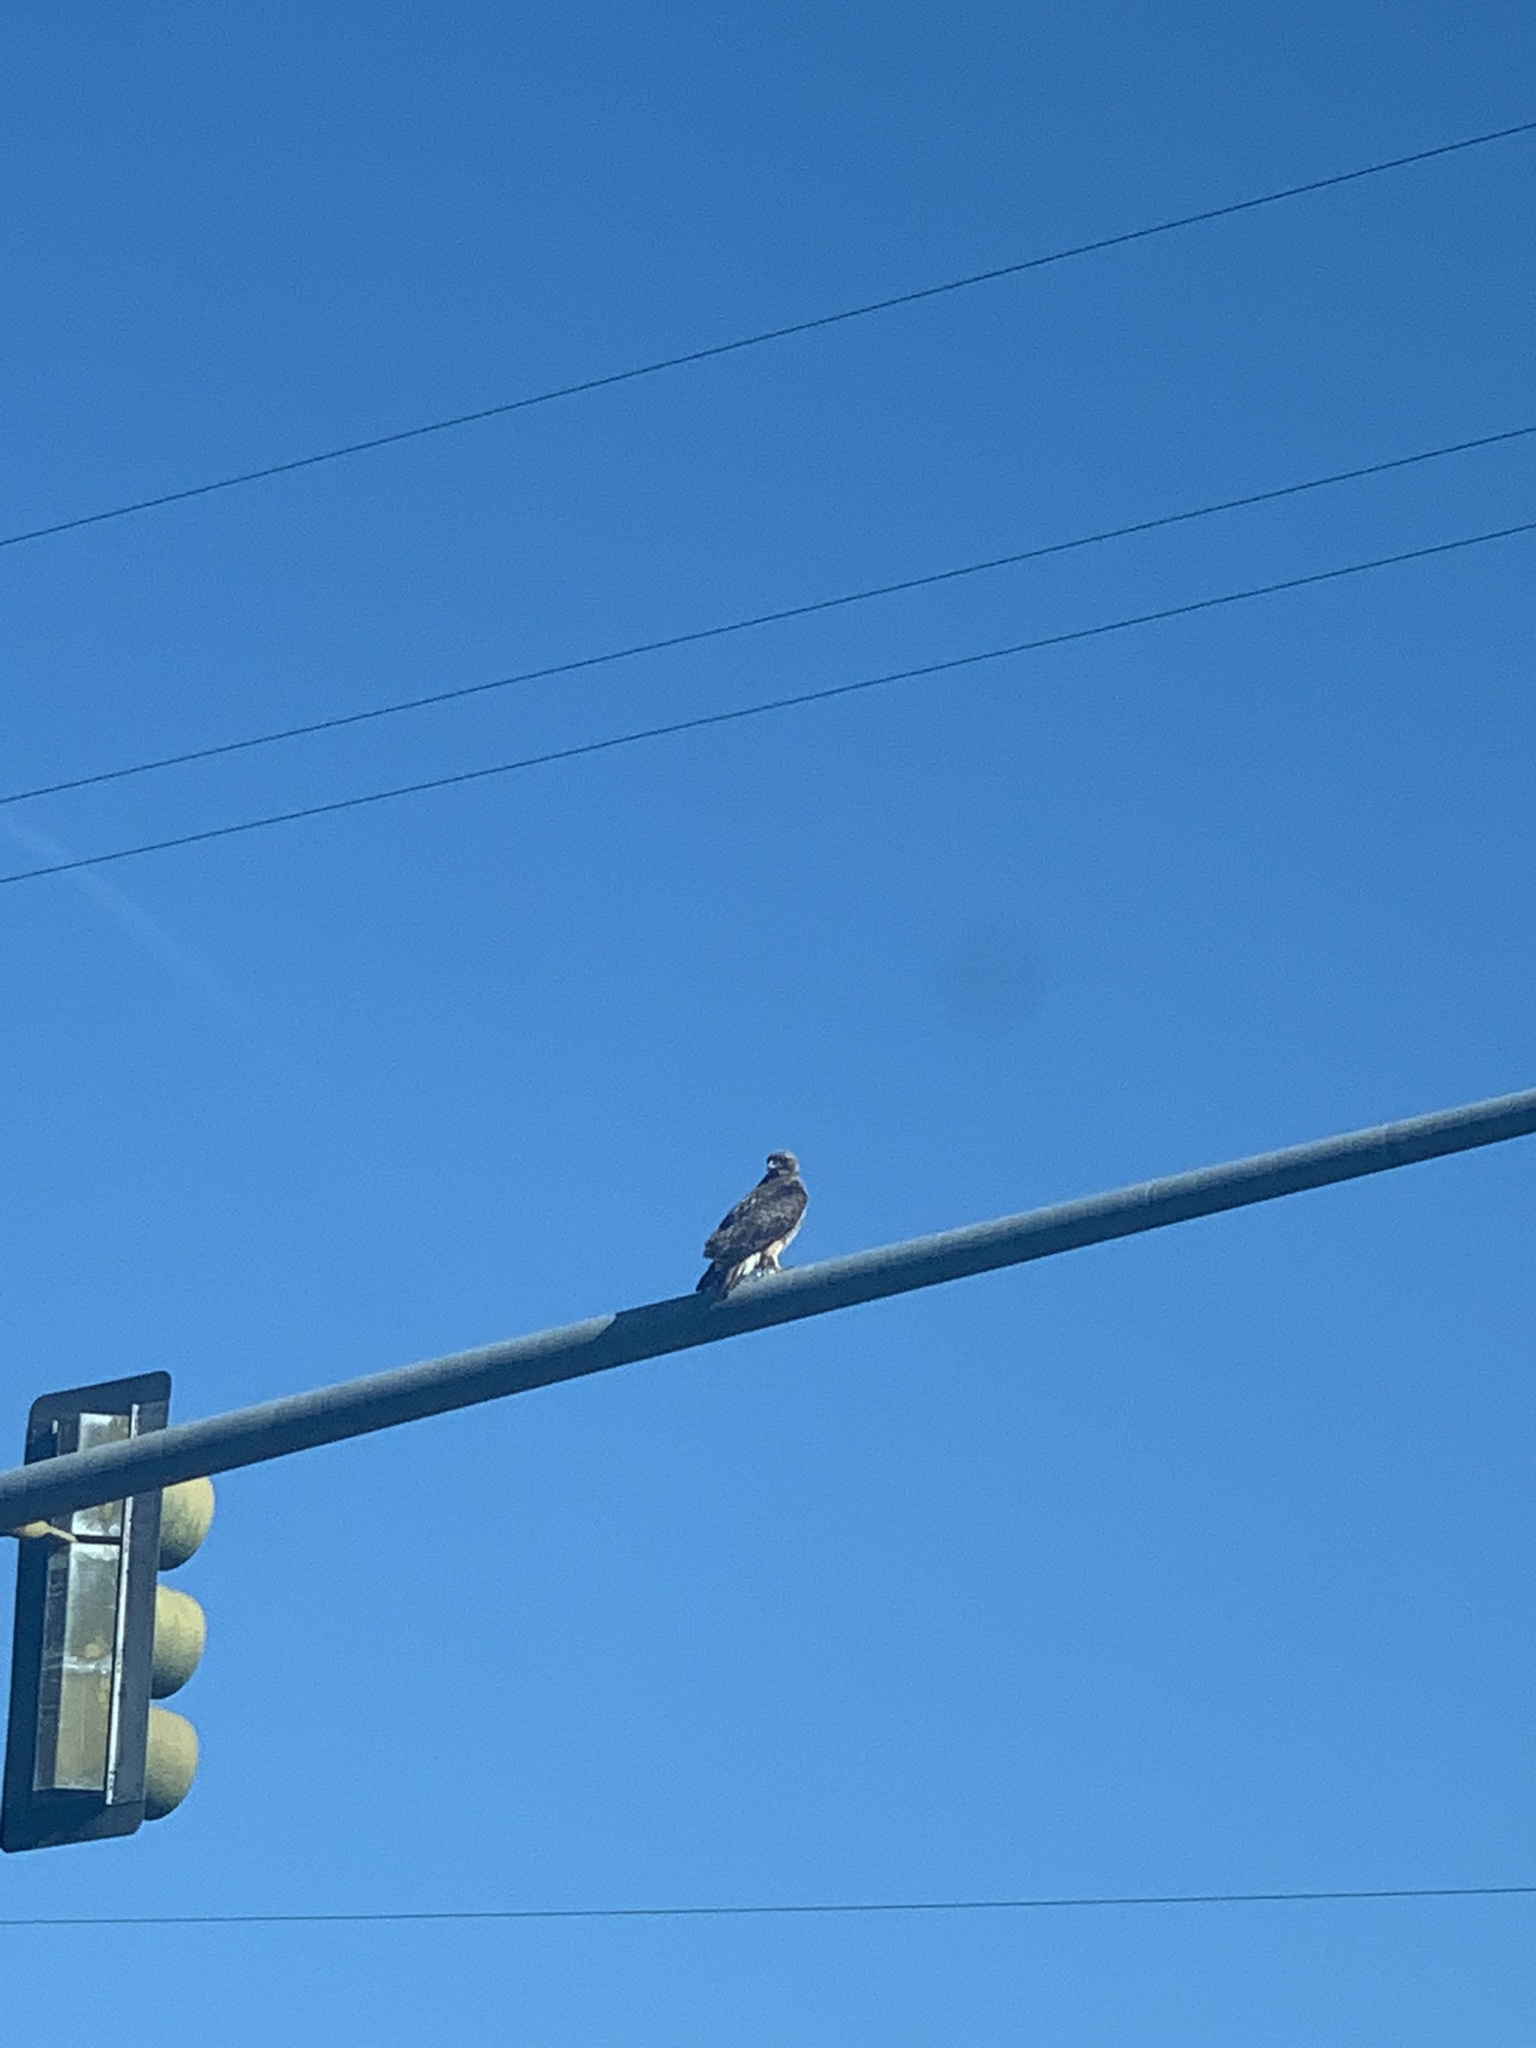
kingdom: Animalia
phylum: Chordata
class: Aves
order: Accipitriformes
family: Accipitridae
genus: Buteo
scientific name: Buteo jamaicensis
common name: Red-tailed hawk
